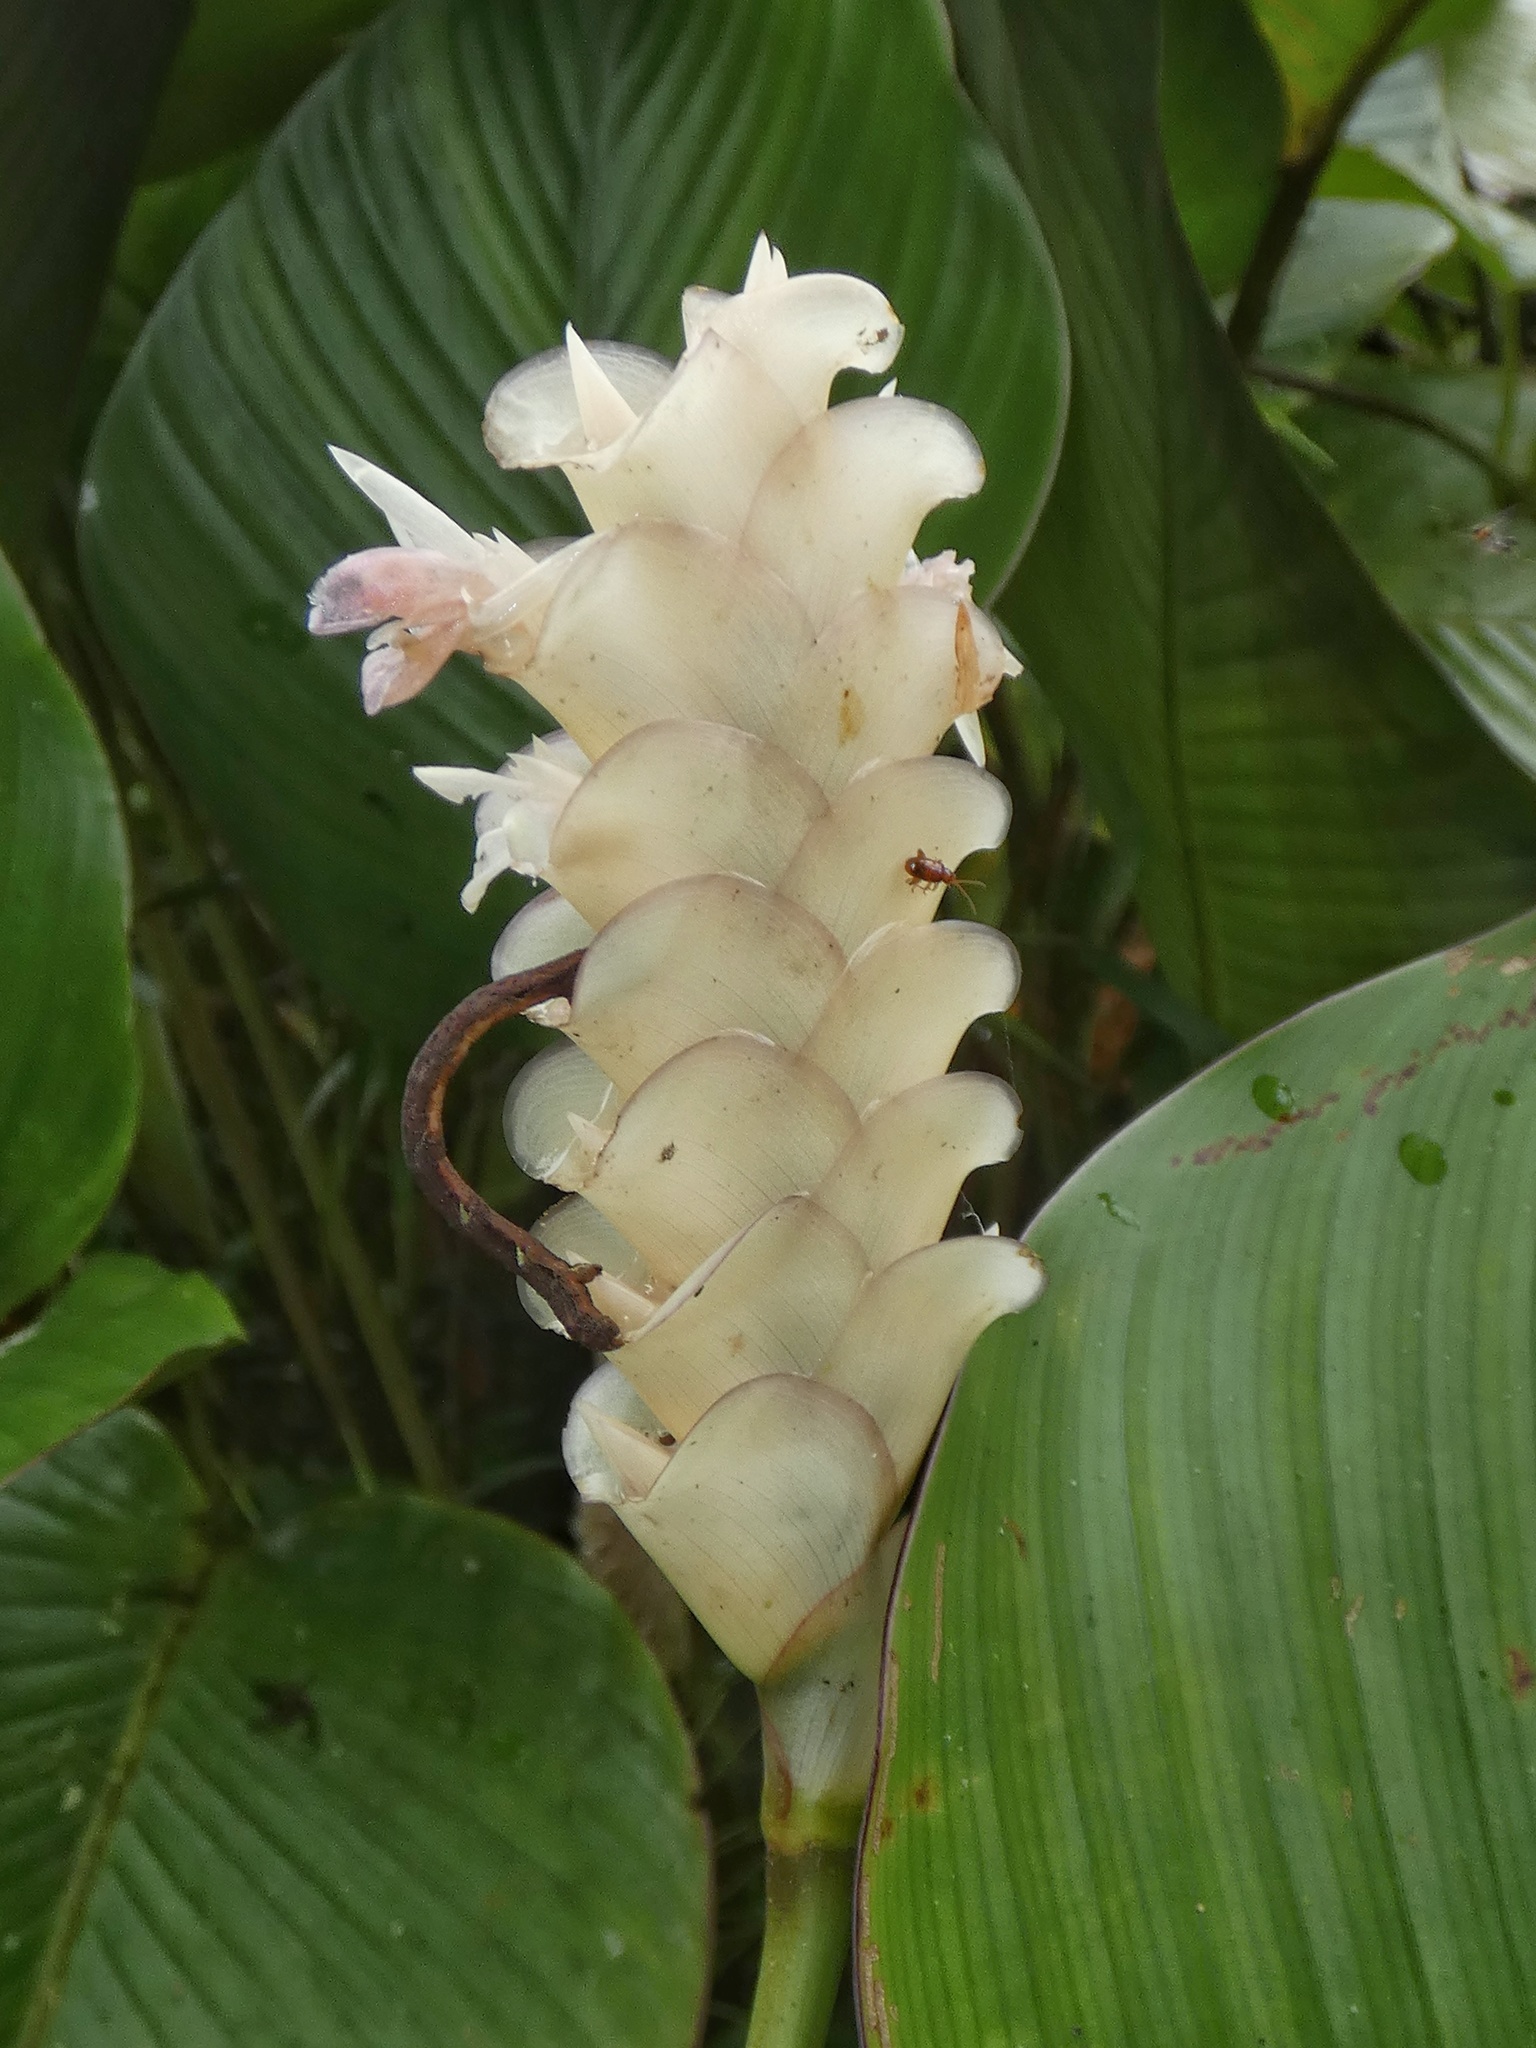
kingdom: Plantae
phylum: Tracheophyta
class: Liliopsida
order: Zingiberales
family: Marantaceae
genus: Calathea
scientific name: Calathea fredgandersii
